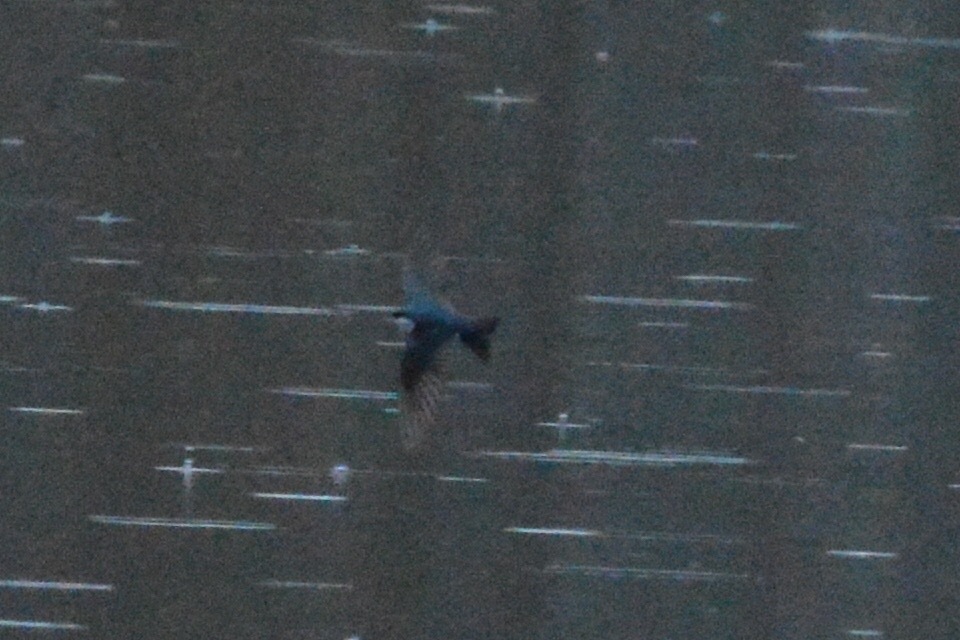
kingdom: Animalia
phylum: Chordata
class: Aves
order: Passeriformes
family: Hirundinidae
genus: Tachycineta
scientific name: Tachycineta bicolor
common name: Tree swallow
